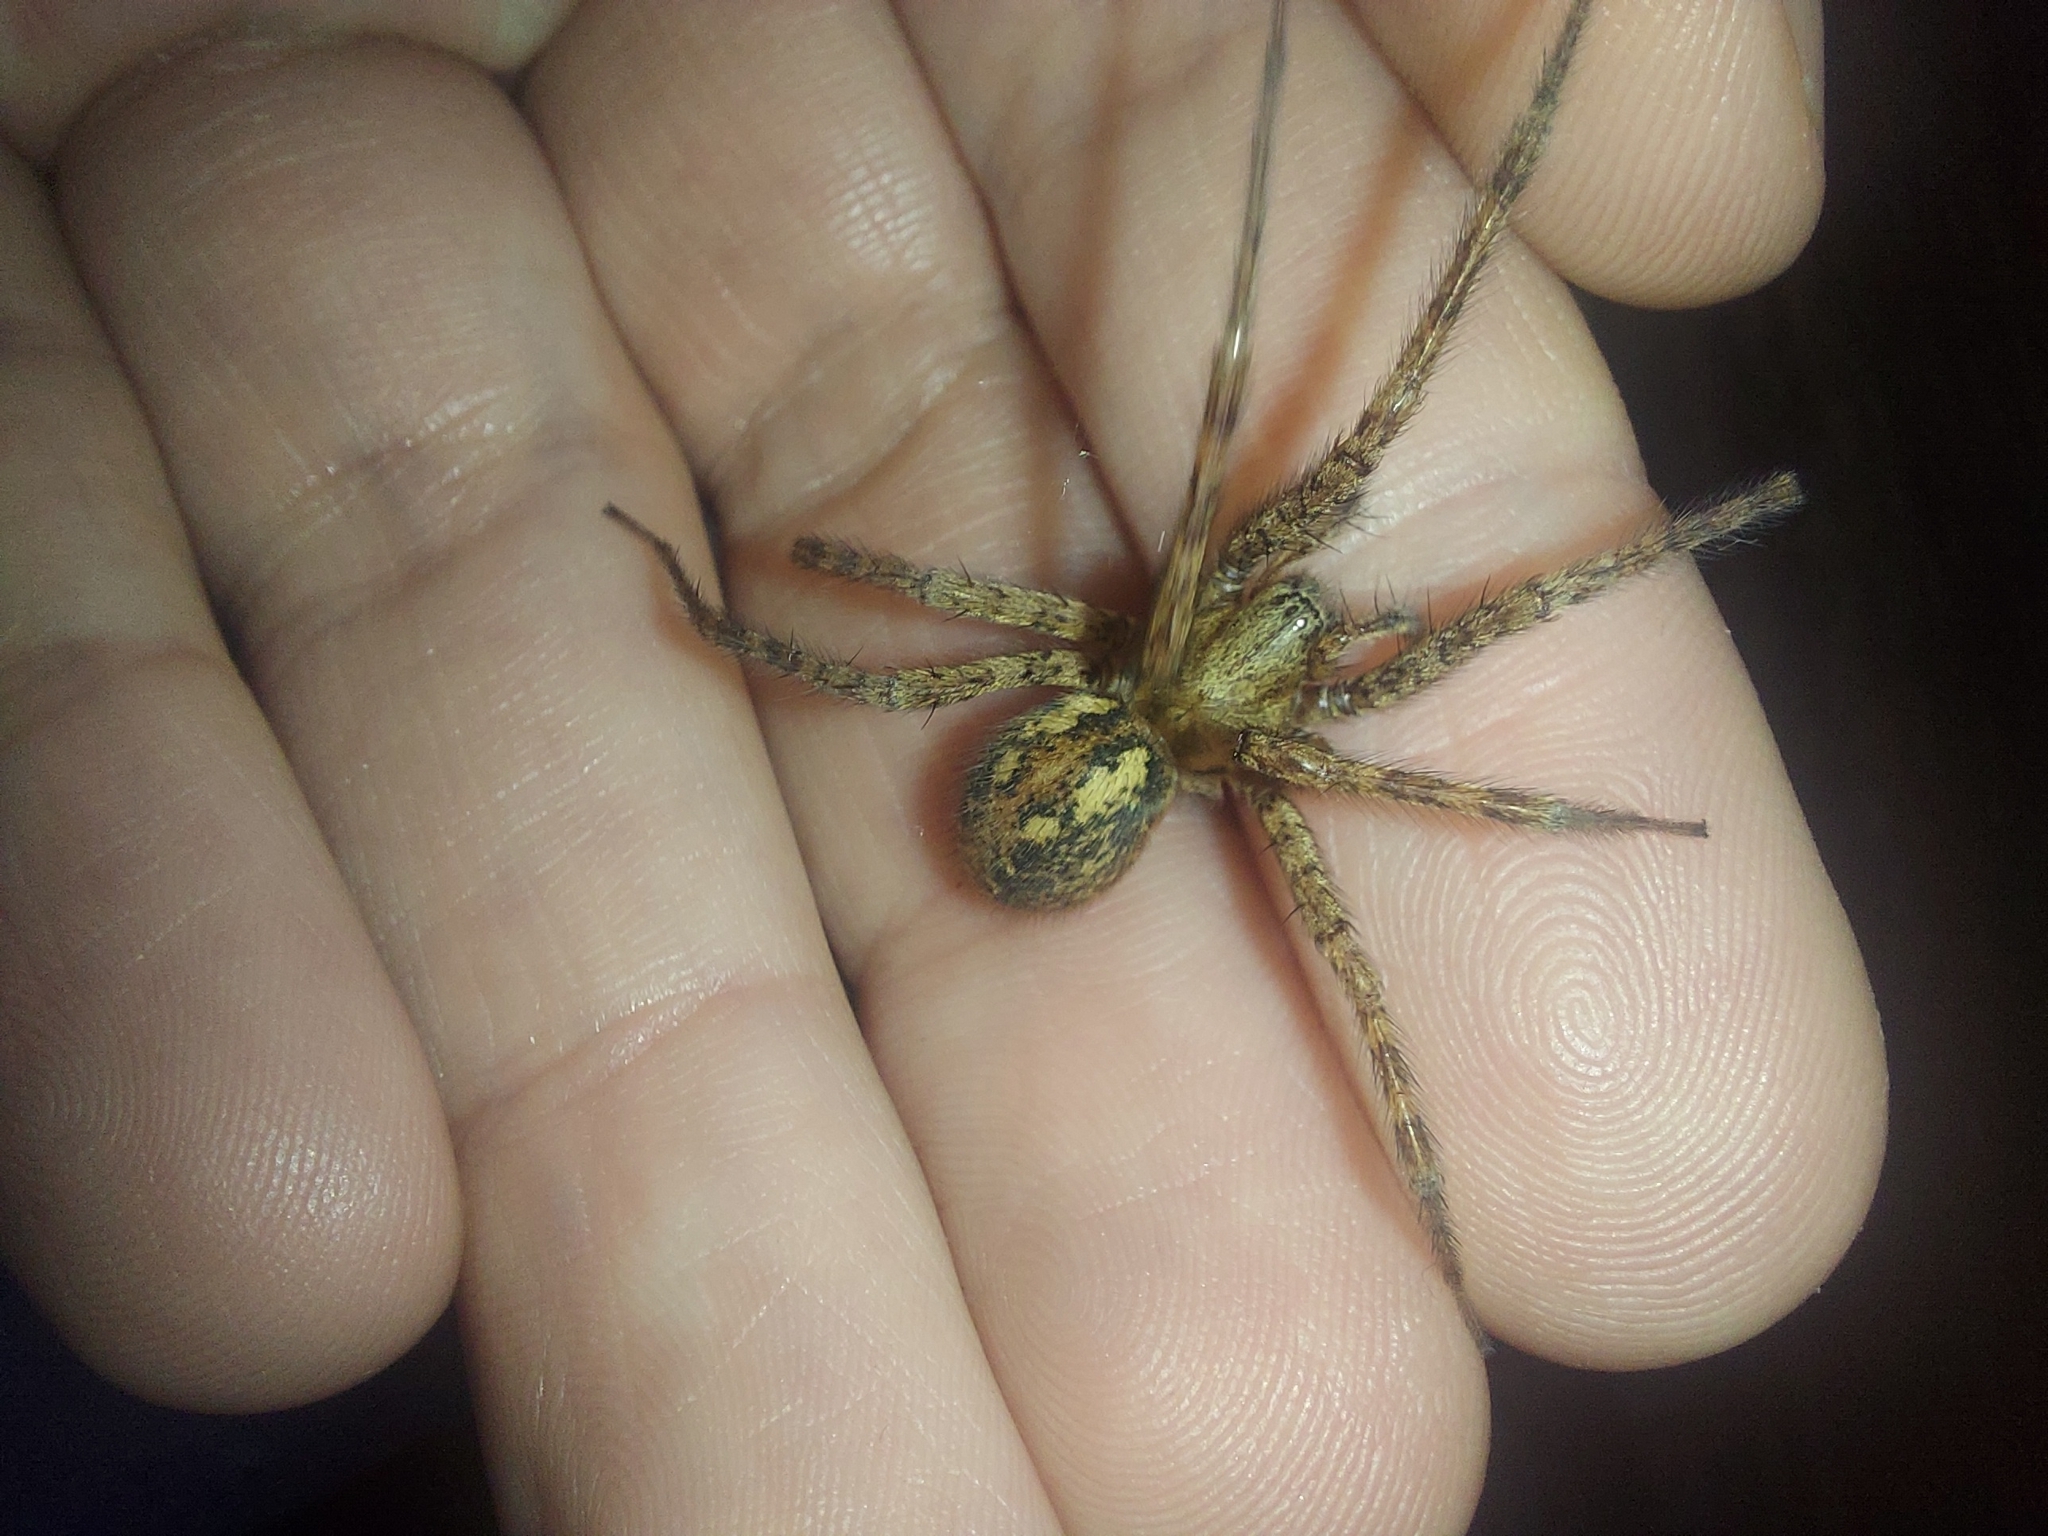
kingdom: Animalia
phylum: Arthropoda
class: Arachnida
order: Araneae
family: Agelenidae
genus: Tegenaria
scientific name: Tegenaria ferruginea
